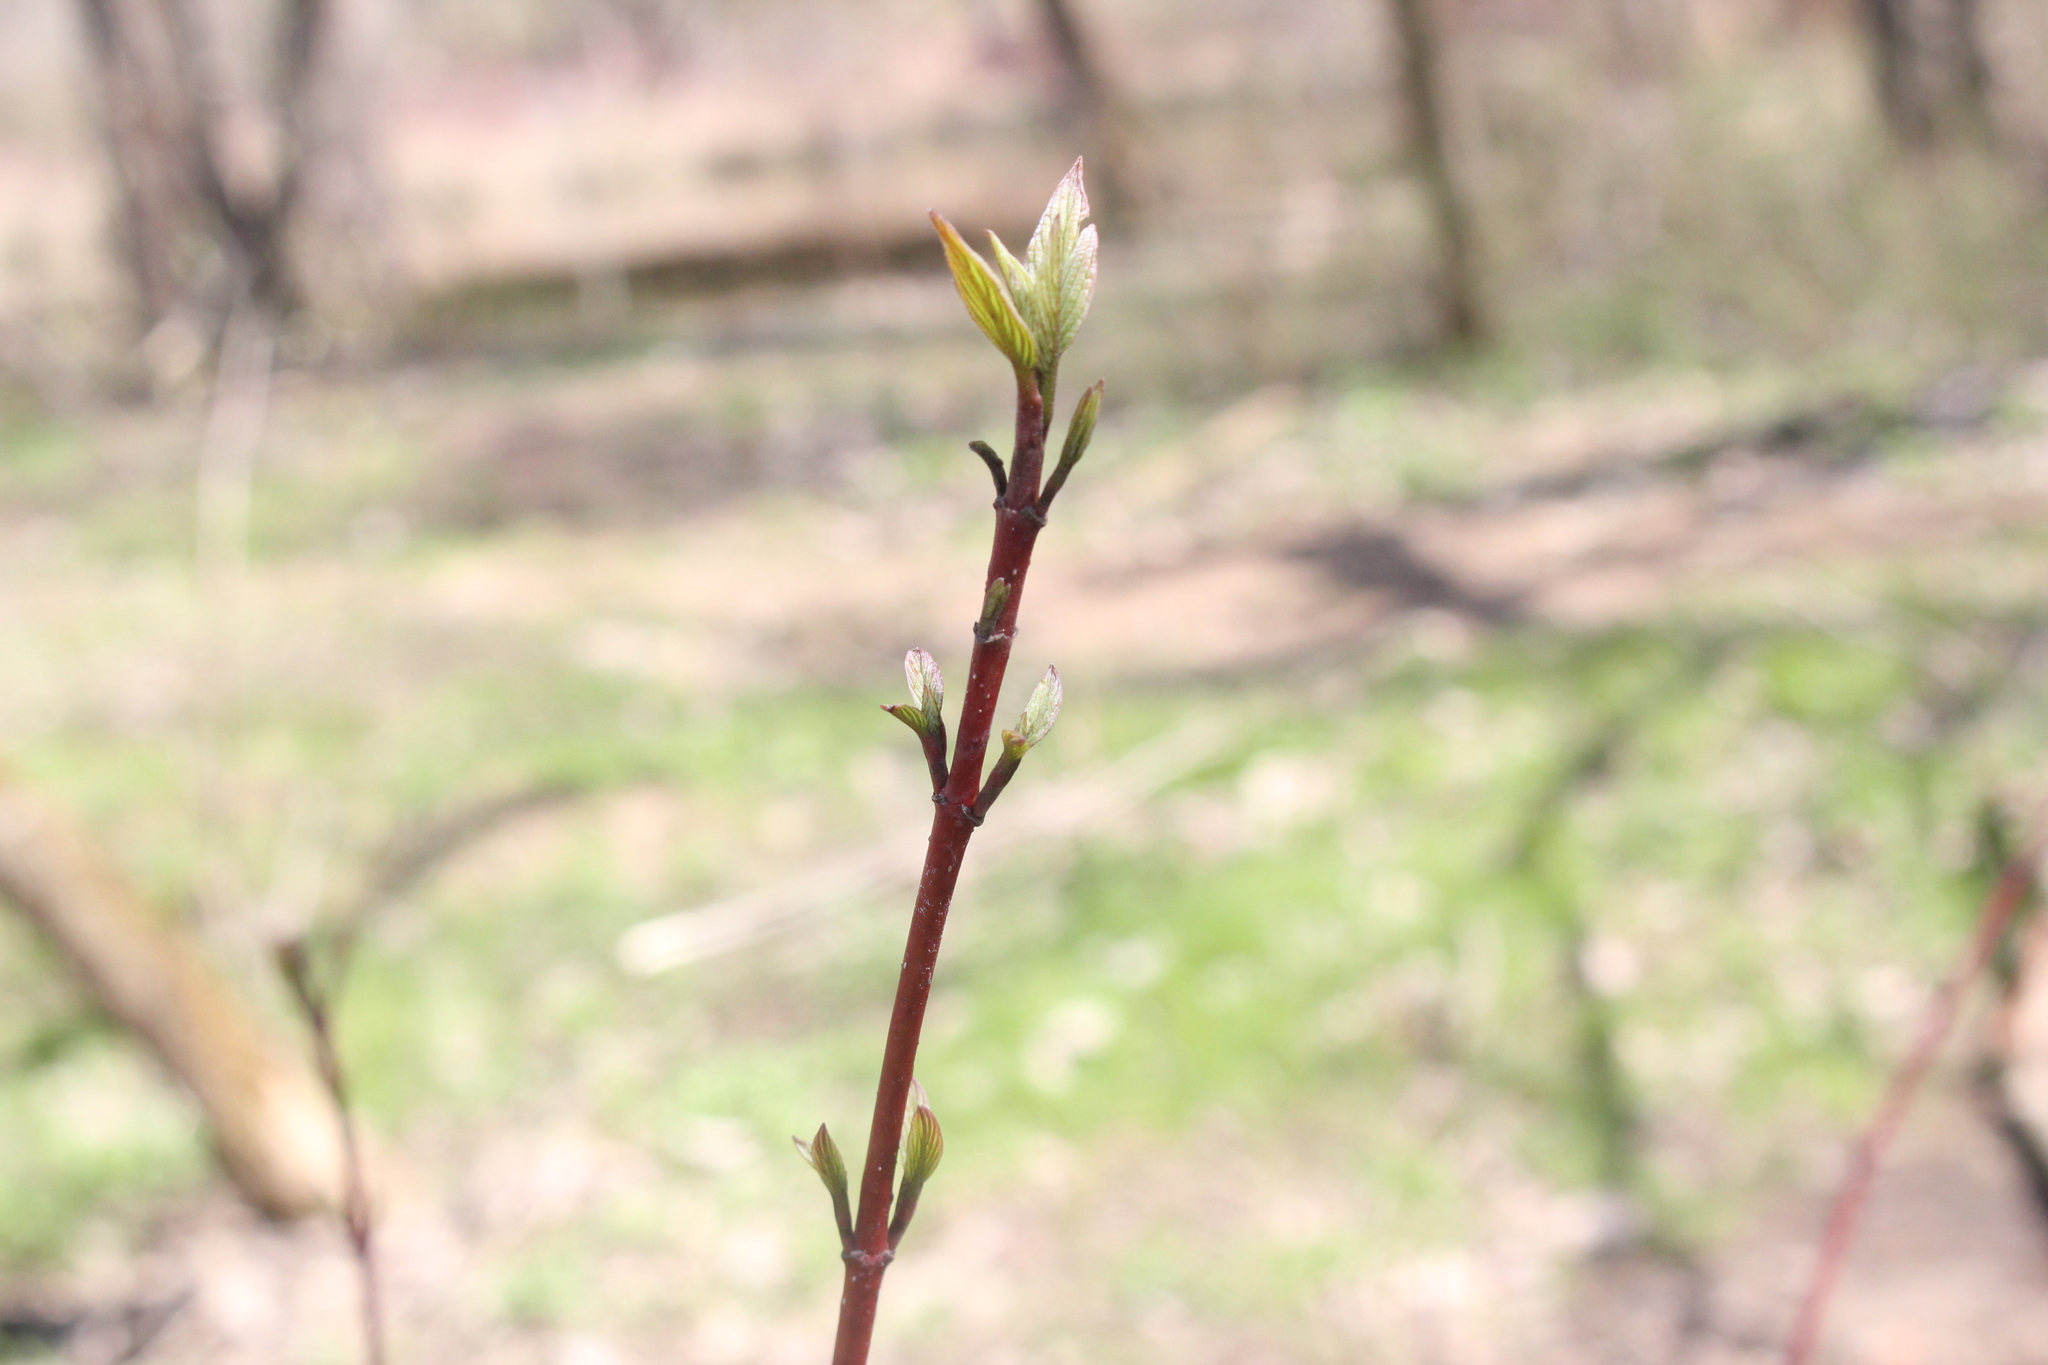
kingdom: Plantae
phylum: Tracheophyta
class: Magnoliopsida
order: Cornales
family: Cornaceae
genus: Cornus
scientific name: Cornus sericea
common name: Red-osier dogwood
